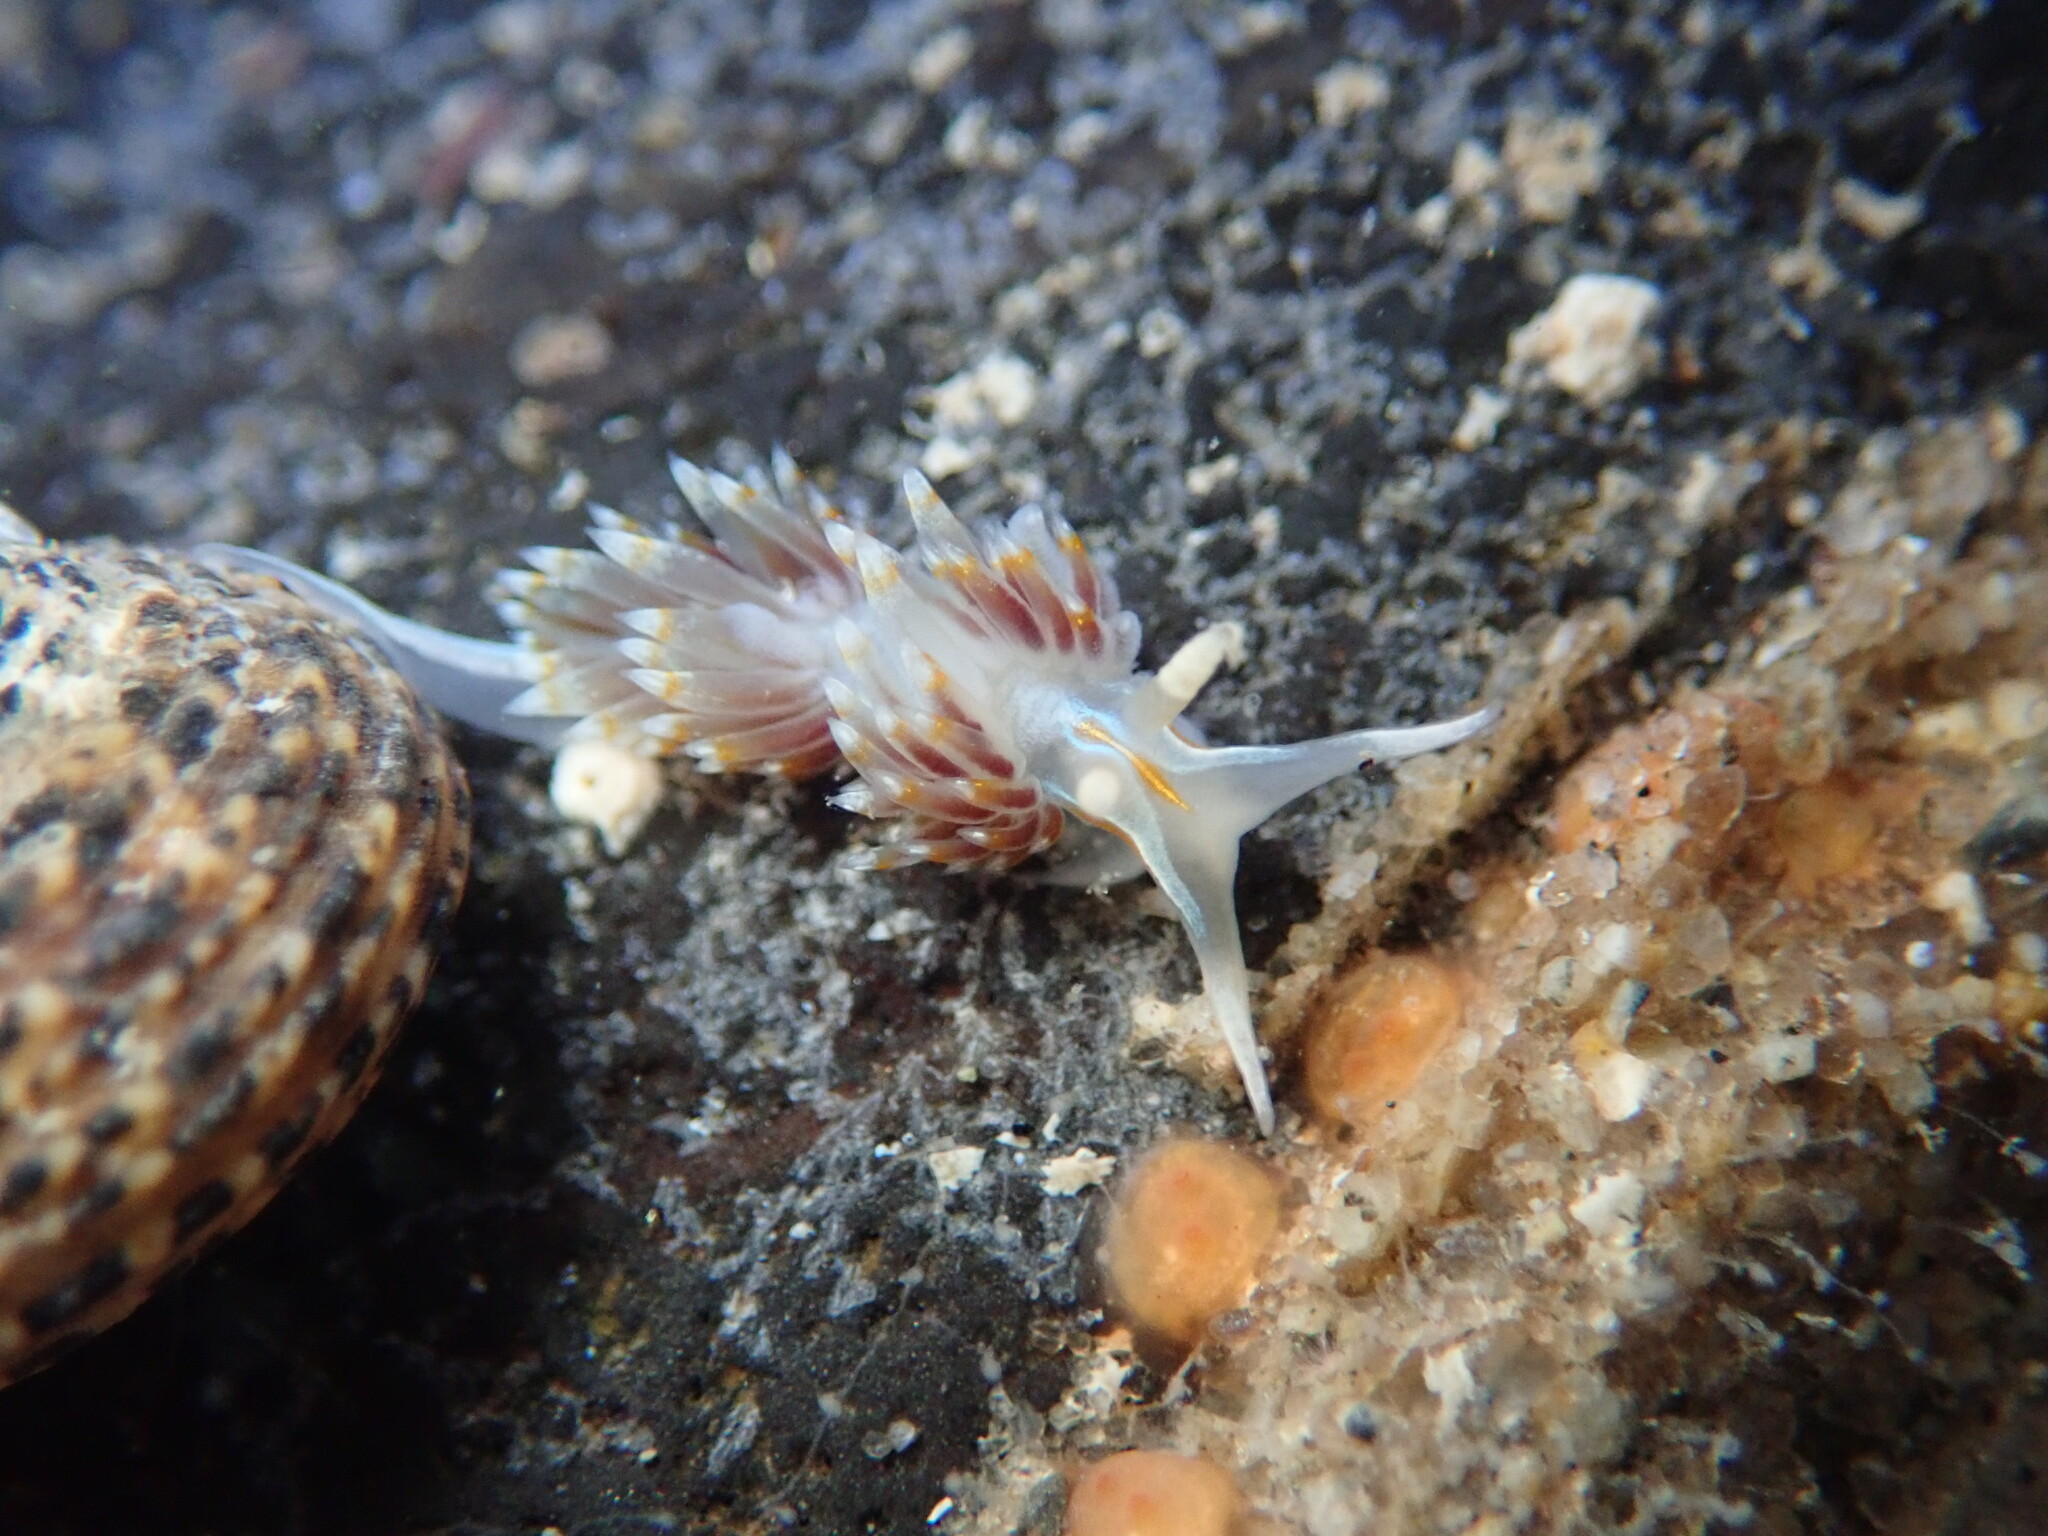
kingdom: Animalia
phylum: Mollusca
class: Gastropoda
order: Nudibranchia
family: Myrrhinidae
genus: Hermissenda
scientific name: Hermissenda opalescens
